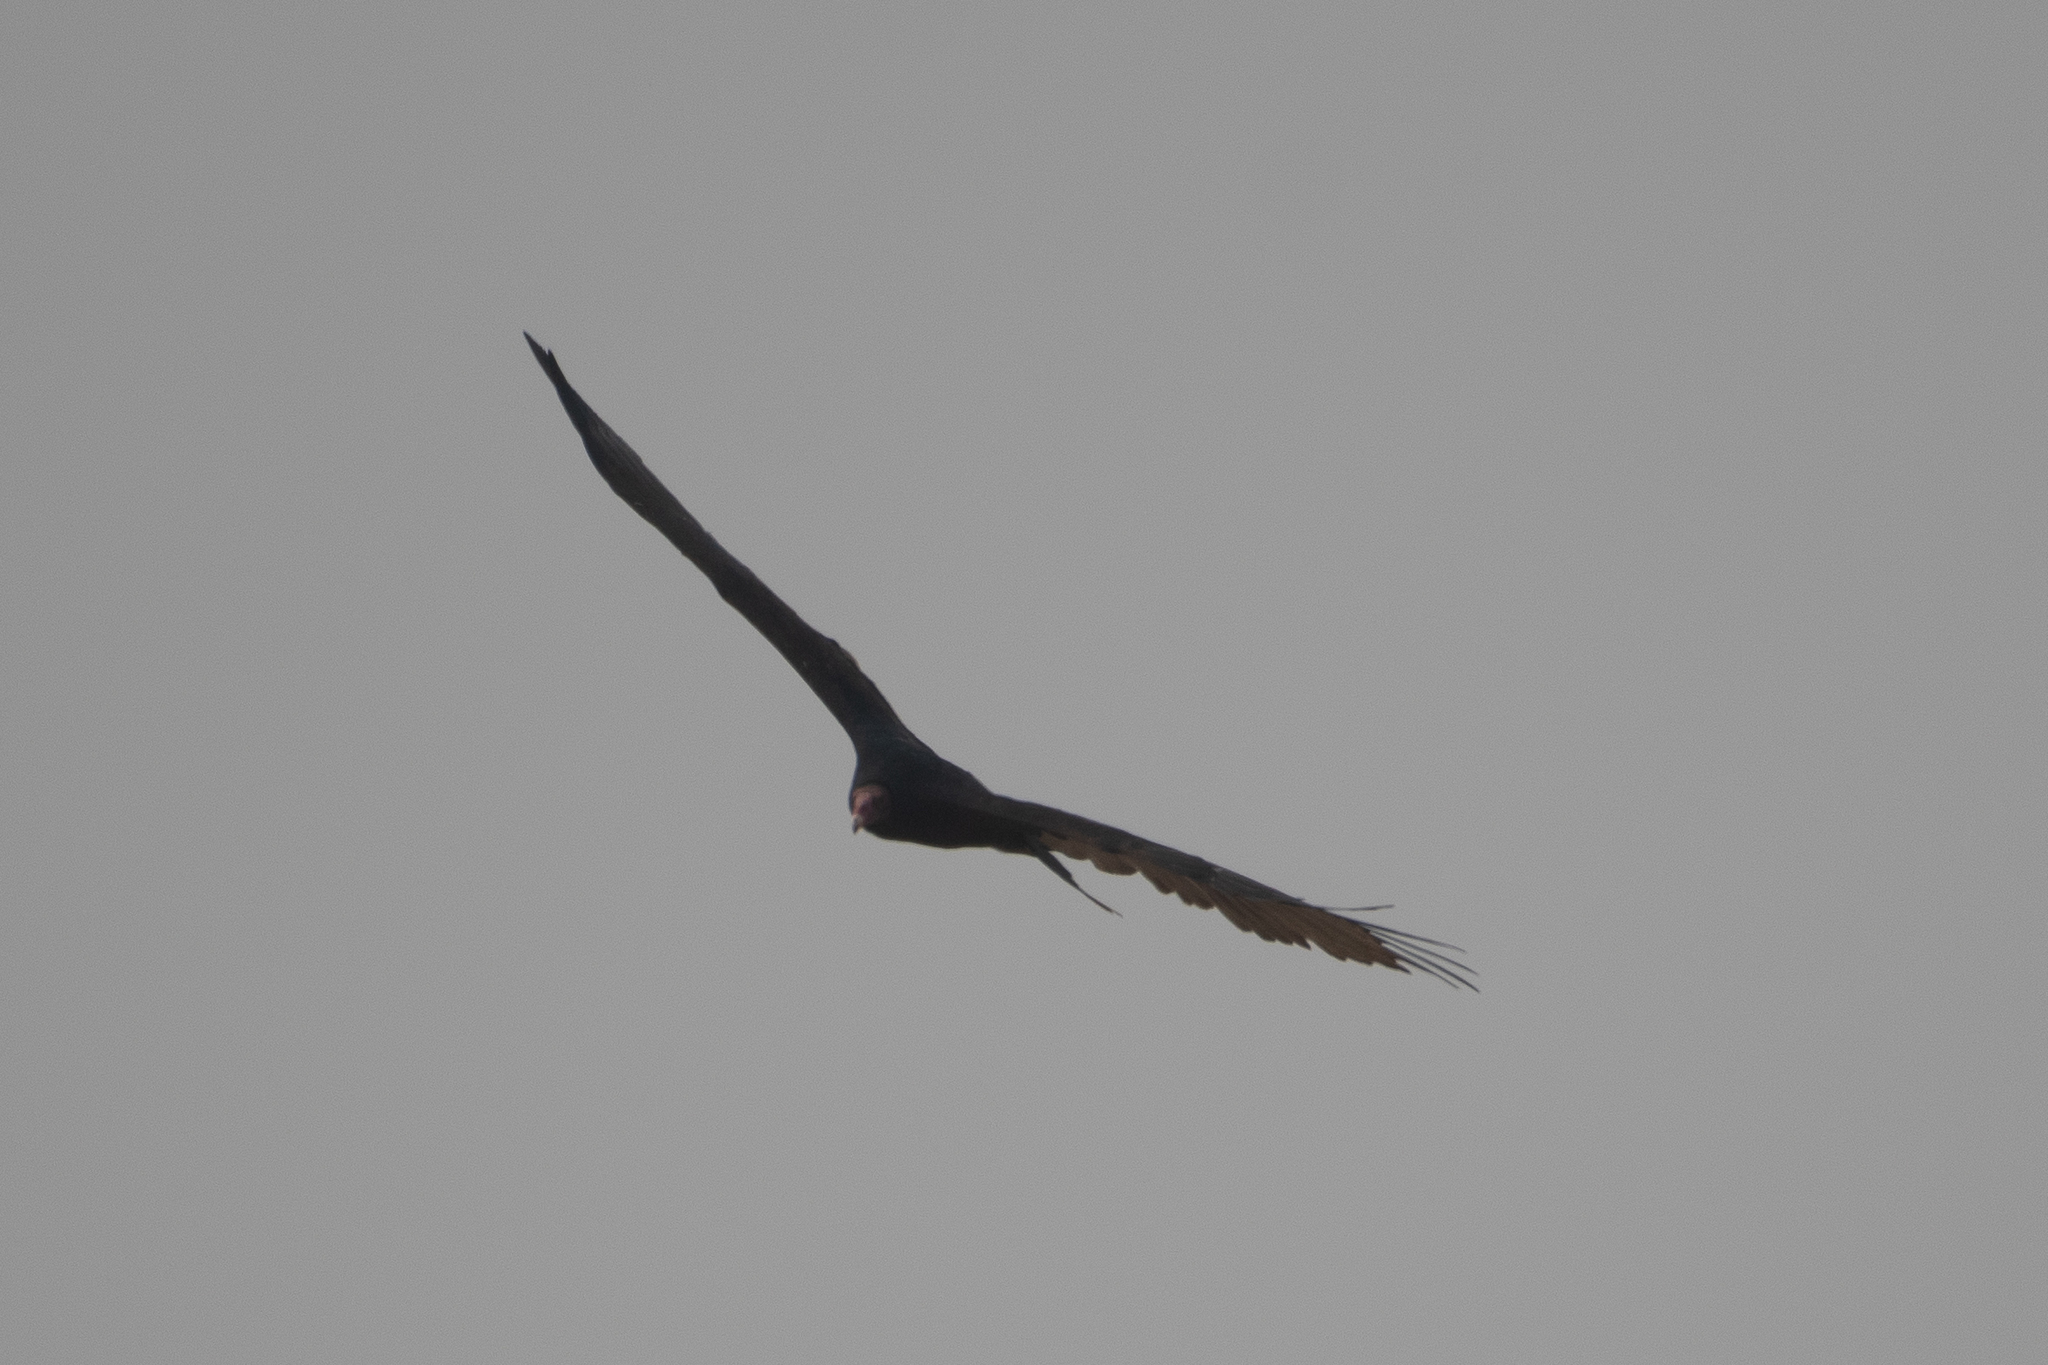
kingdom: Animalia
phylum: Chordata
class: Aves
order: Accipitriformes
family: Cathartidae
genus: Cathartes
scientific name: Cathartes aura
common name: Turkey vulture
